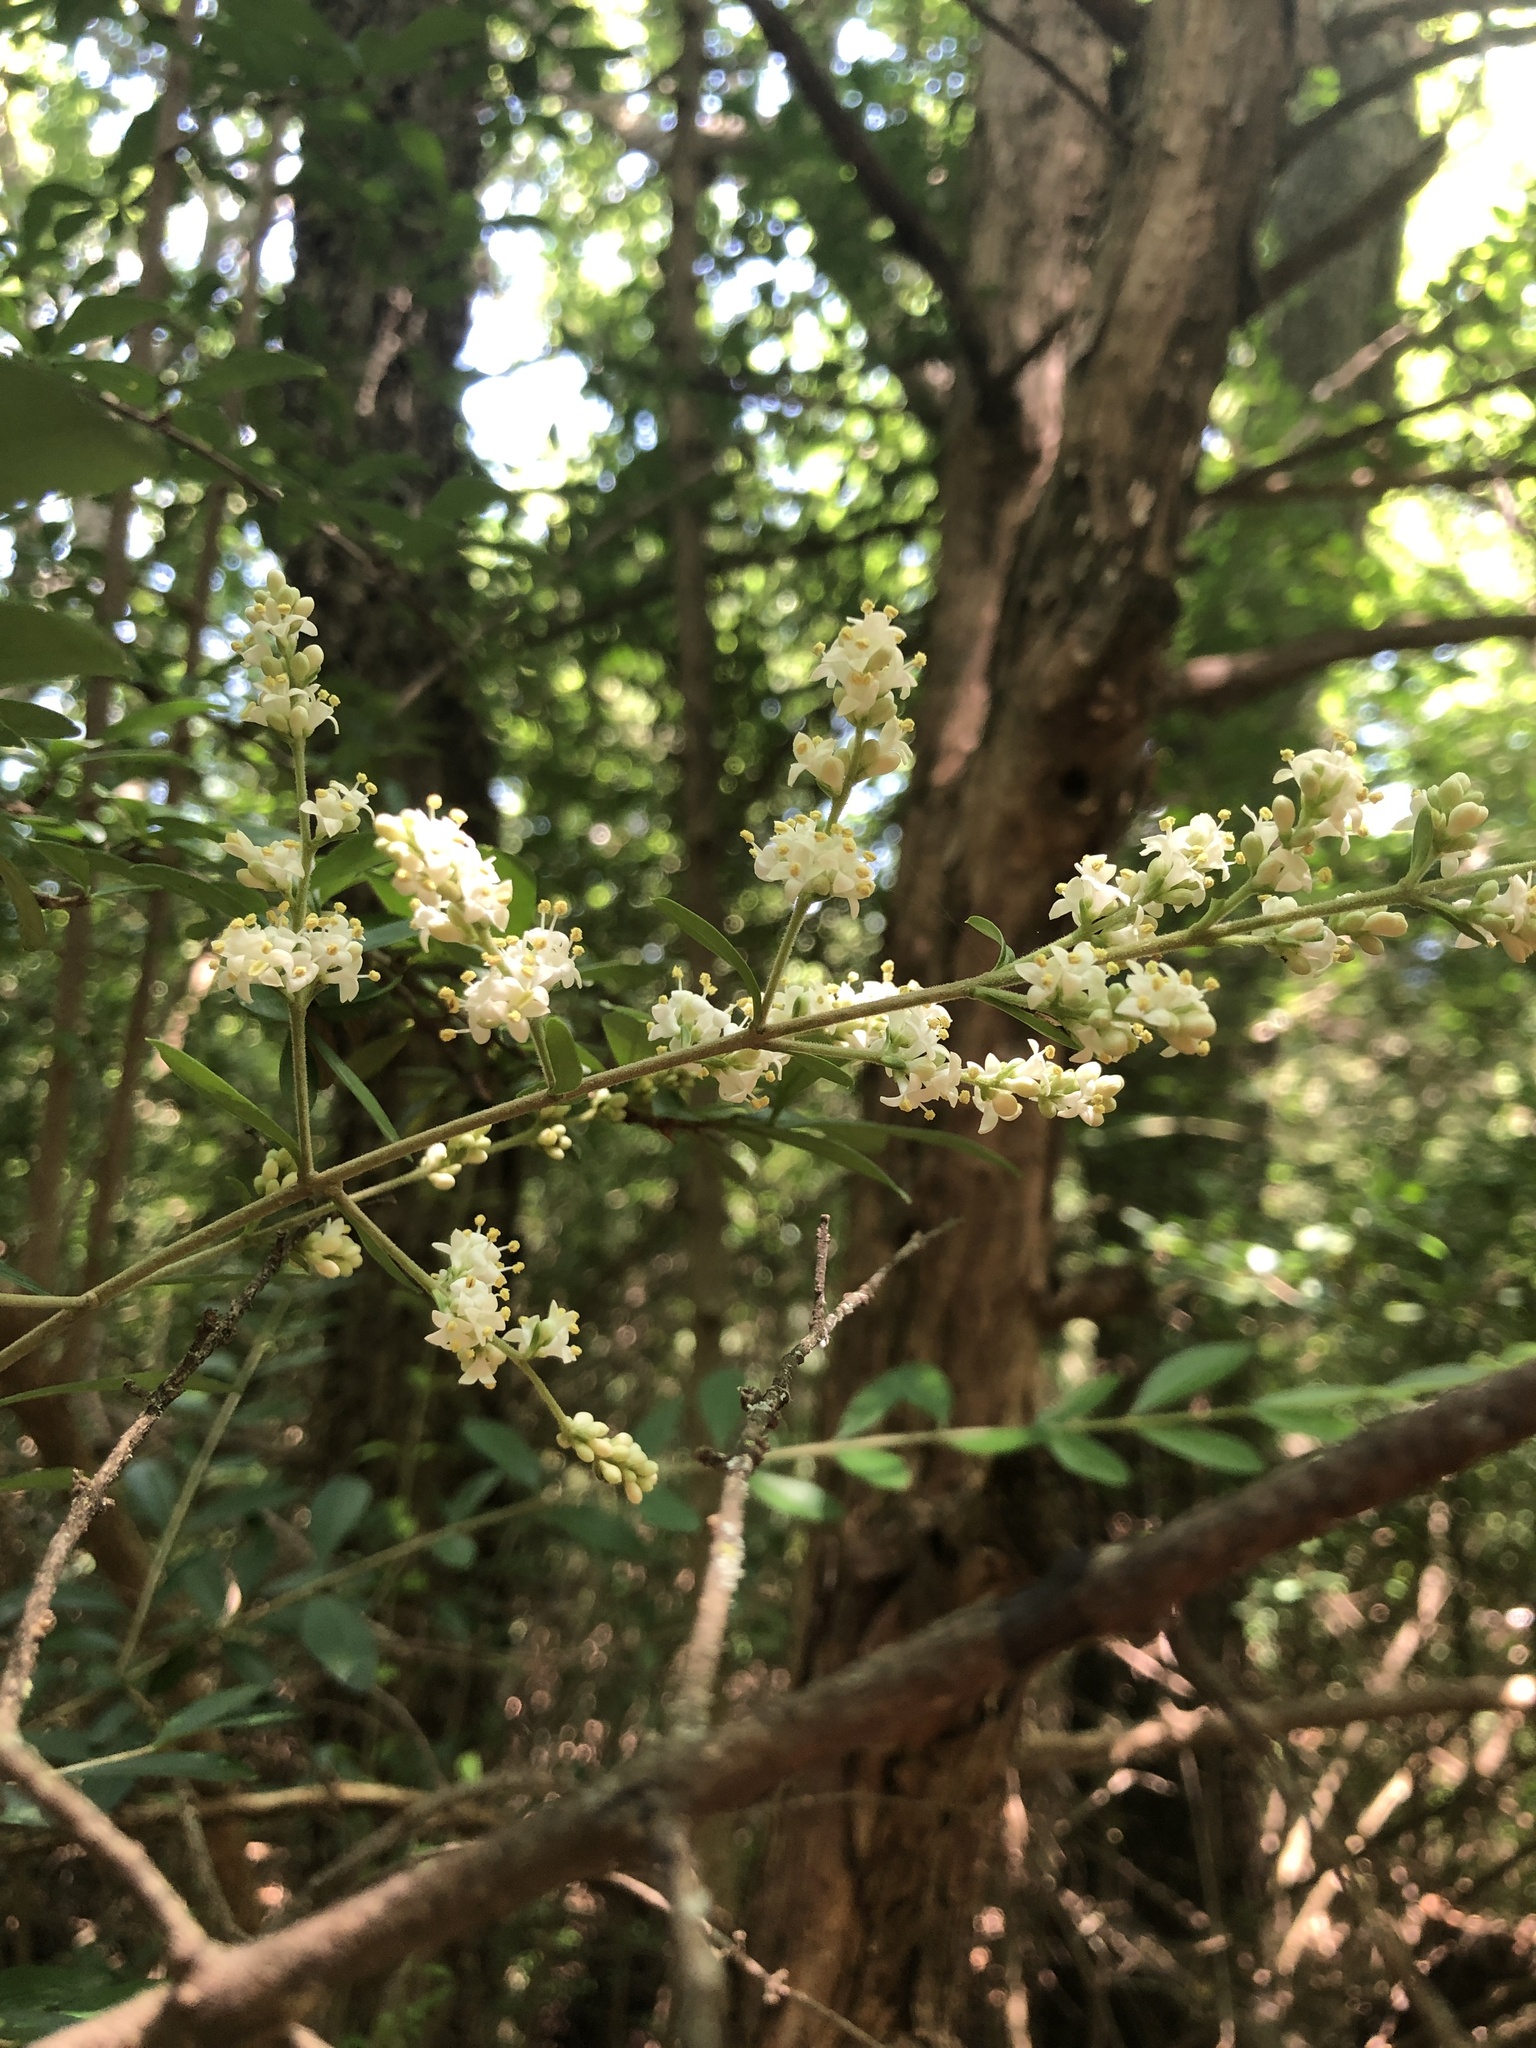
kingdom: Plantae
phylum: Tracheophyta
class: Magnoliopsida
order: Lamiales
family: Oleaceae
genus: Ligustrum
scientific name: Ligustrum quihoui
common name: Waxyleaf privet
